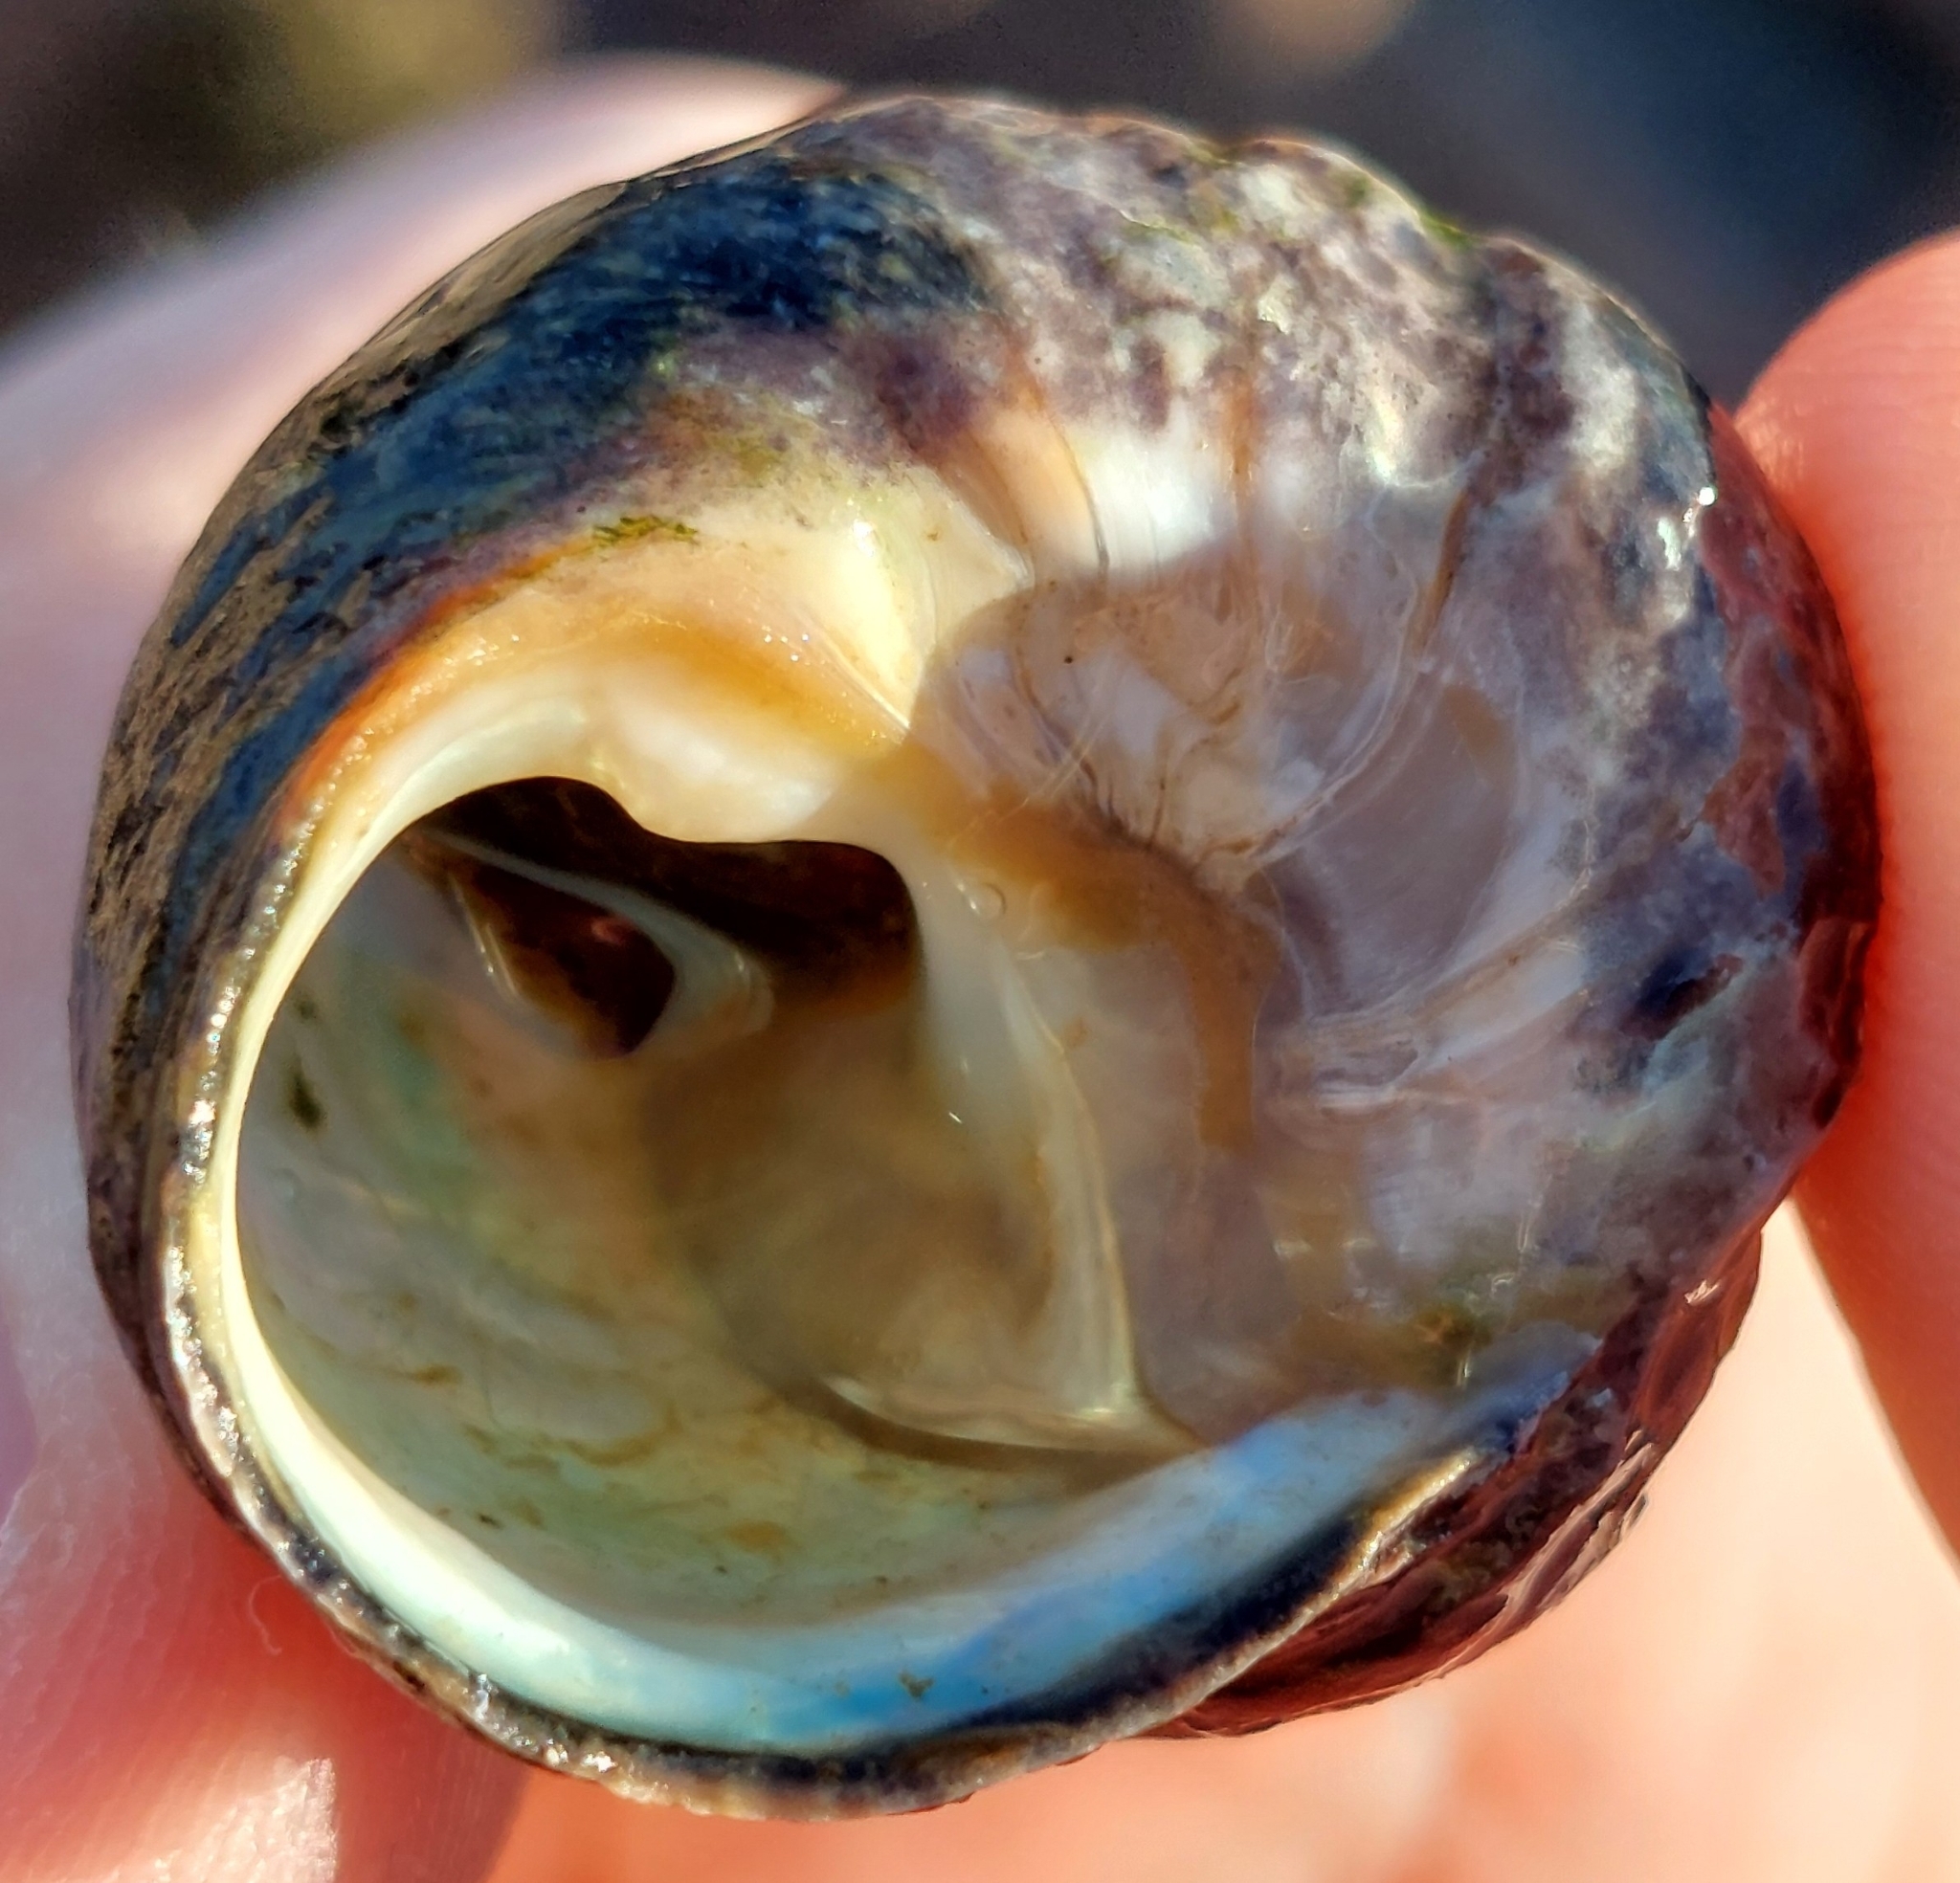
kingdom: Animalia
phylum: Mollusca
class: Gastropoda
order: Trochida
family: Trochidae
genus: Phorcus
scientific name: Phorcus lineatus
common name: Toothed top shell
